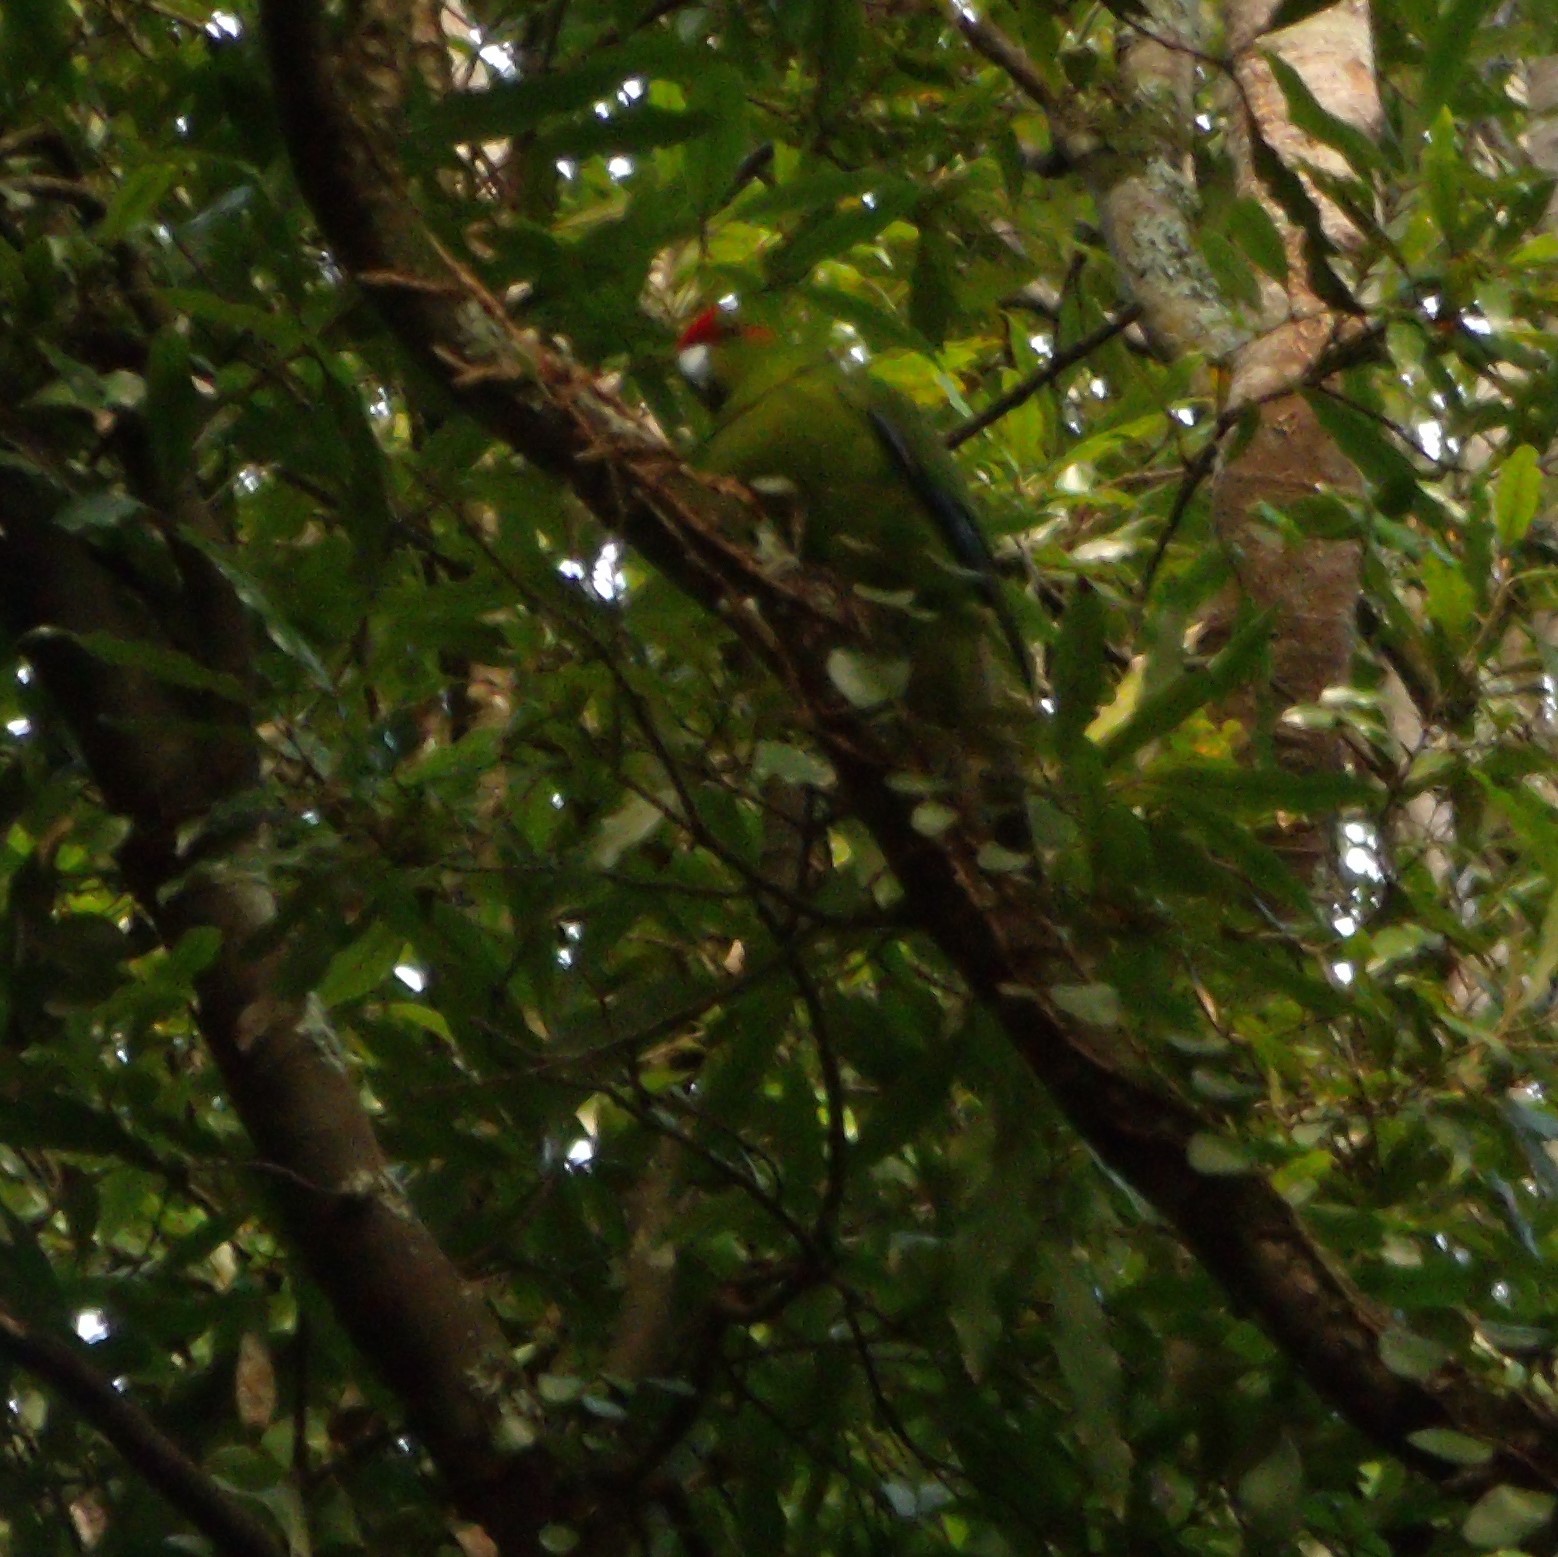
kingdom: Animalia
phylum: Chordata
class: Aves
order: Psittaciformes
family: Psittacidae
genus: Cyanoramphus
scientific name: Cyanoramphus novaezelandiae
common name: Red-fronted parakeet
